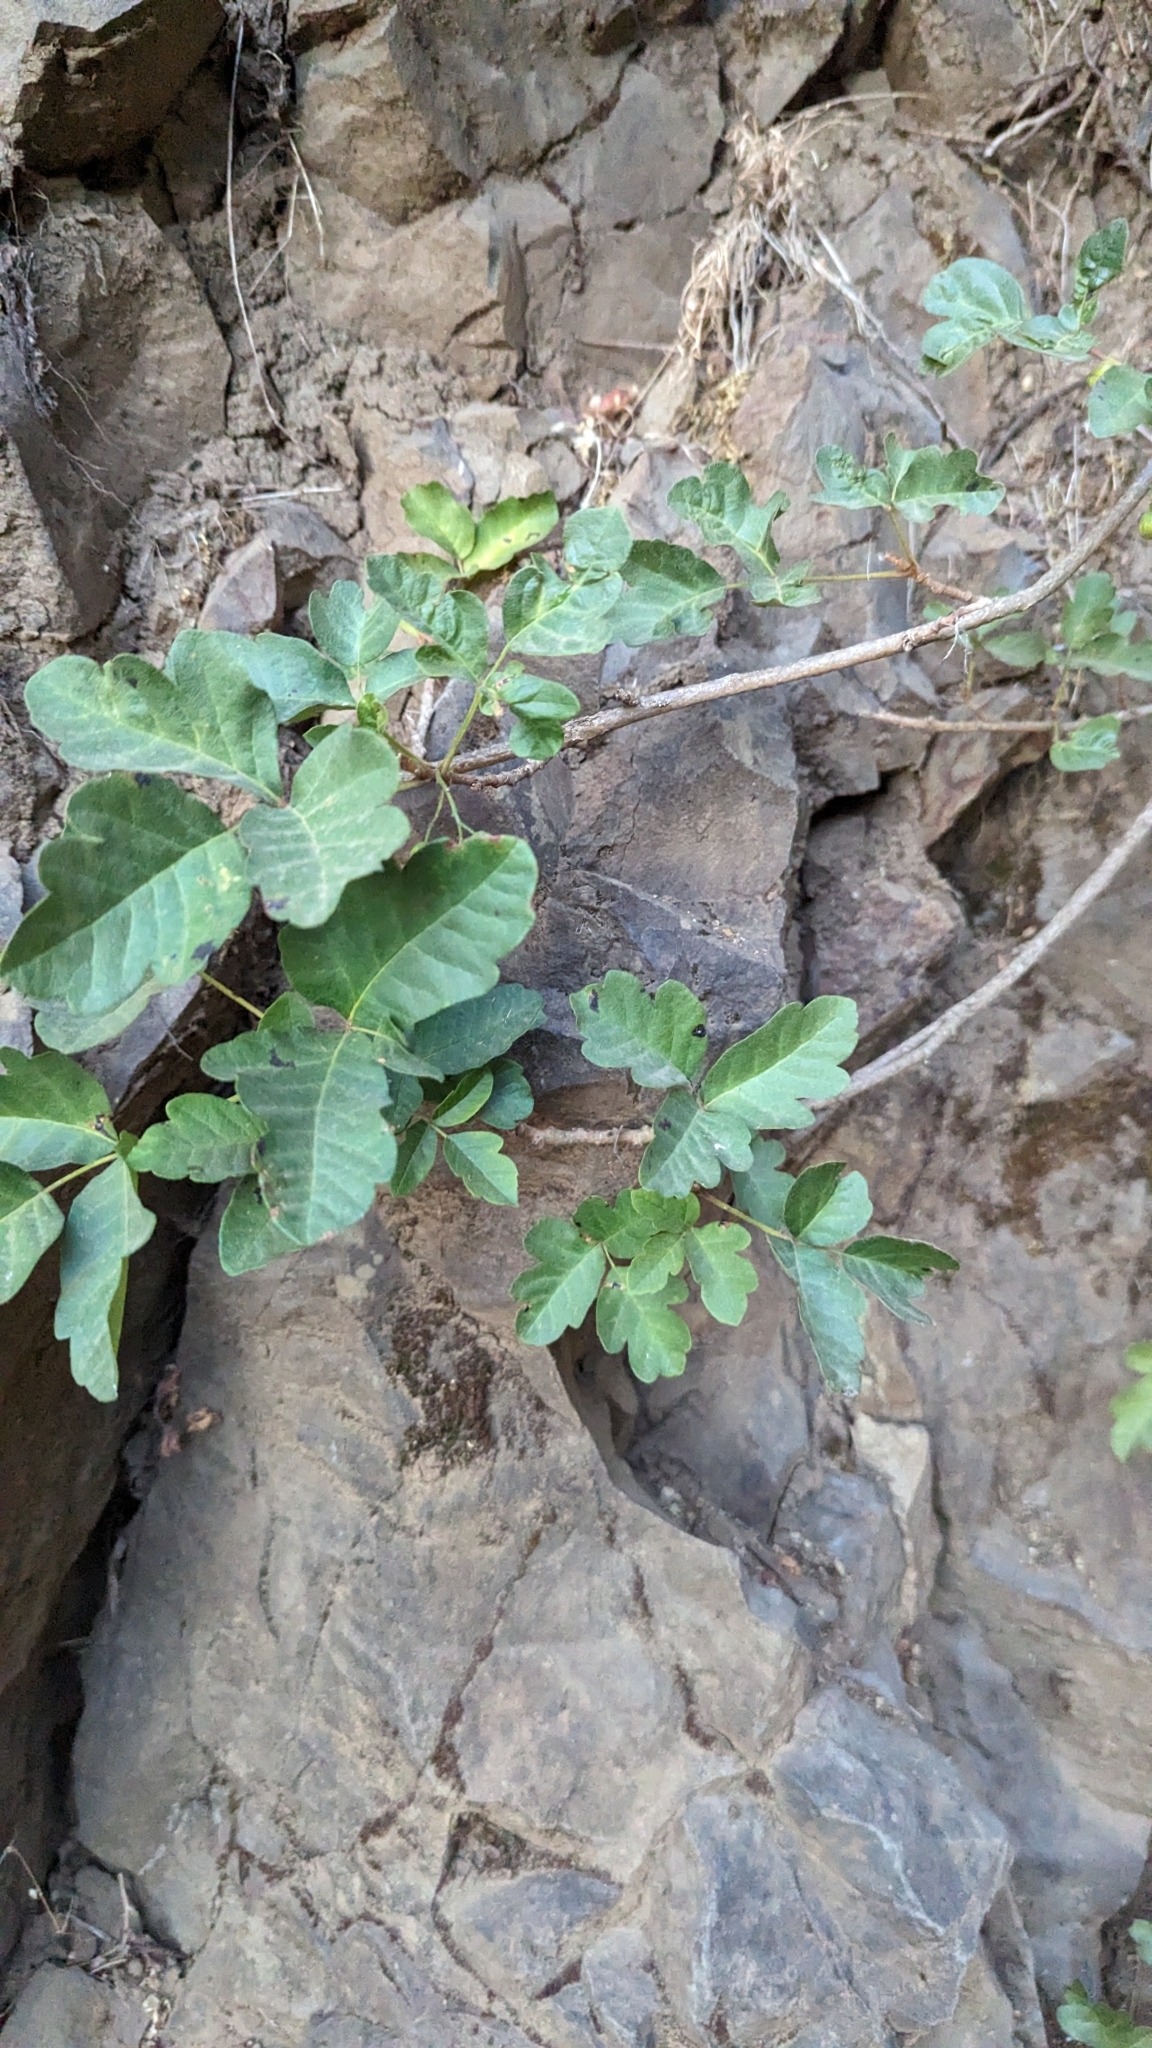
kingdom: Plantae
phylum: Tracheophyta
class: Magnoliopsida
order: Sapindales
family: Anacardiaceae
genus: Toxicodendron
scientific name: Toxicodendron diversilobum
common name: Pacific poison-oak
